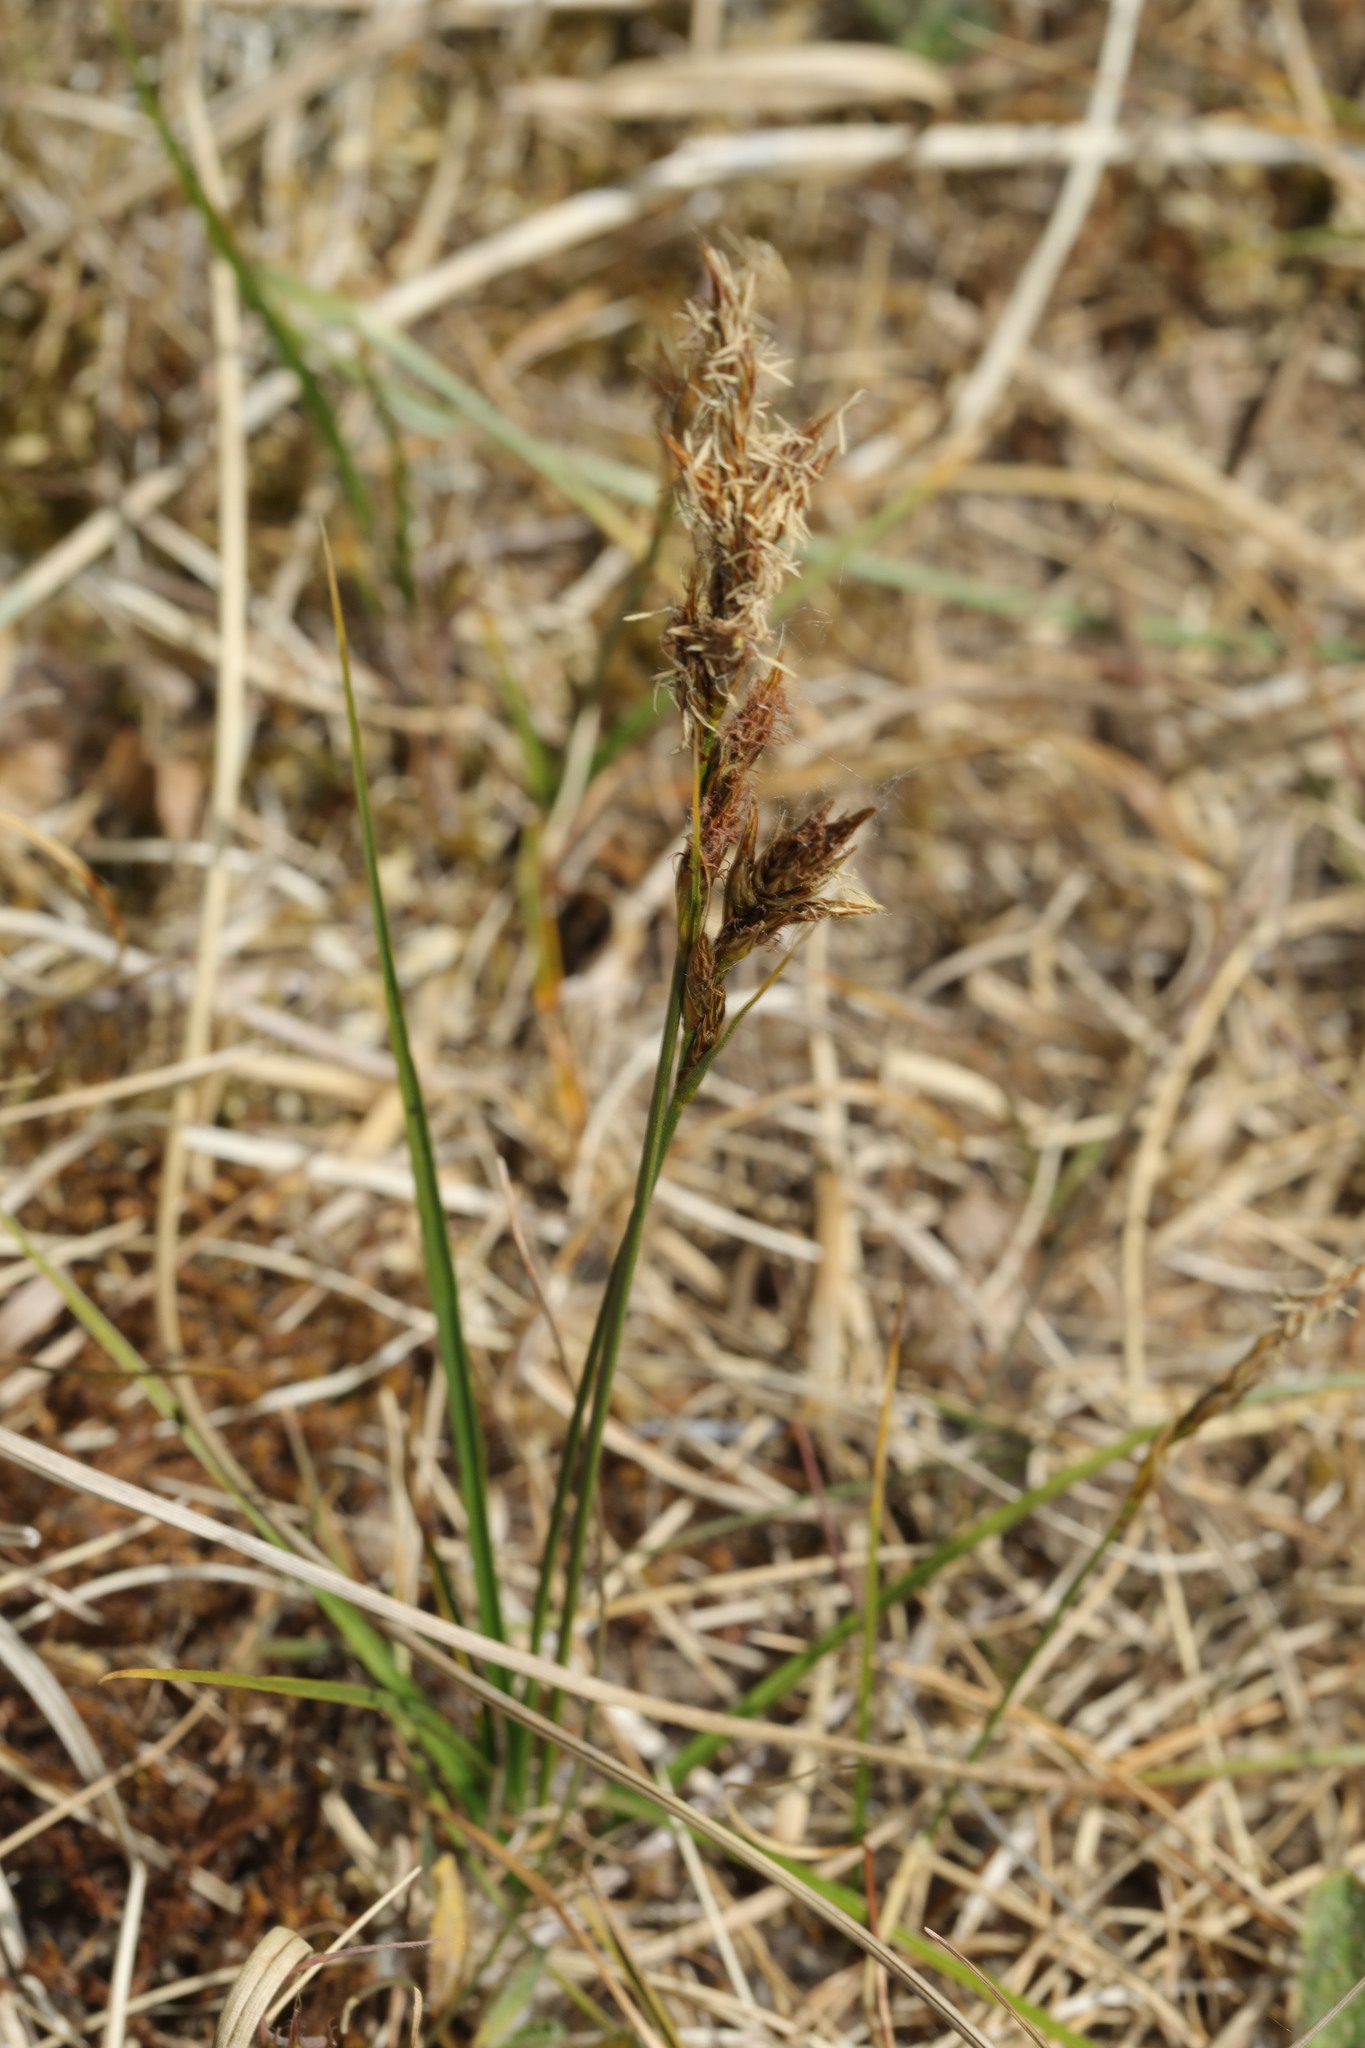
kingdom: Plantae
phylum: Tracheophyta
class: Liliopsida
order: Poales
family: Cyperaceae
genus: Carex
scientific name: Carex arenaria
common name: Sand sedge
